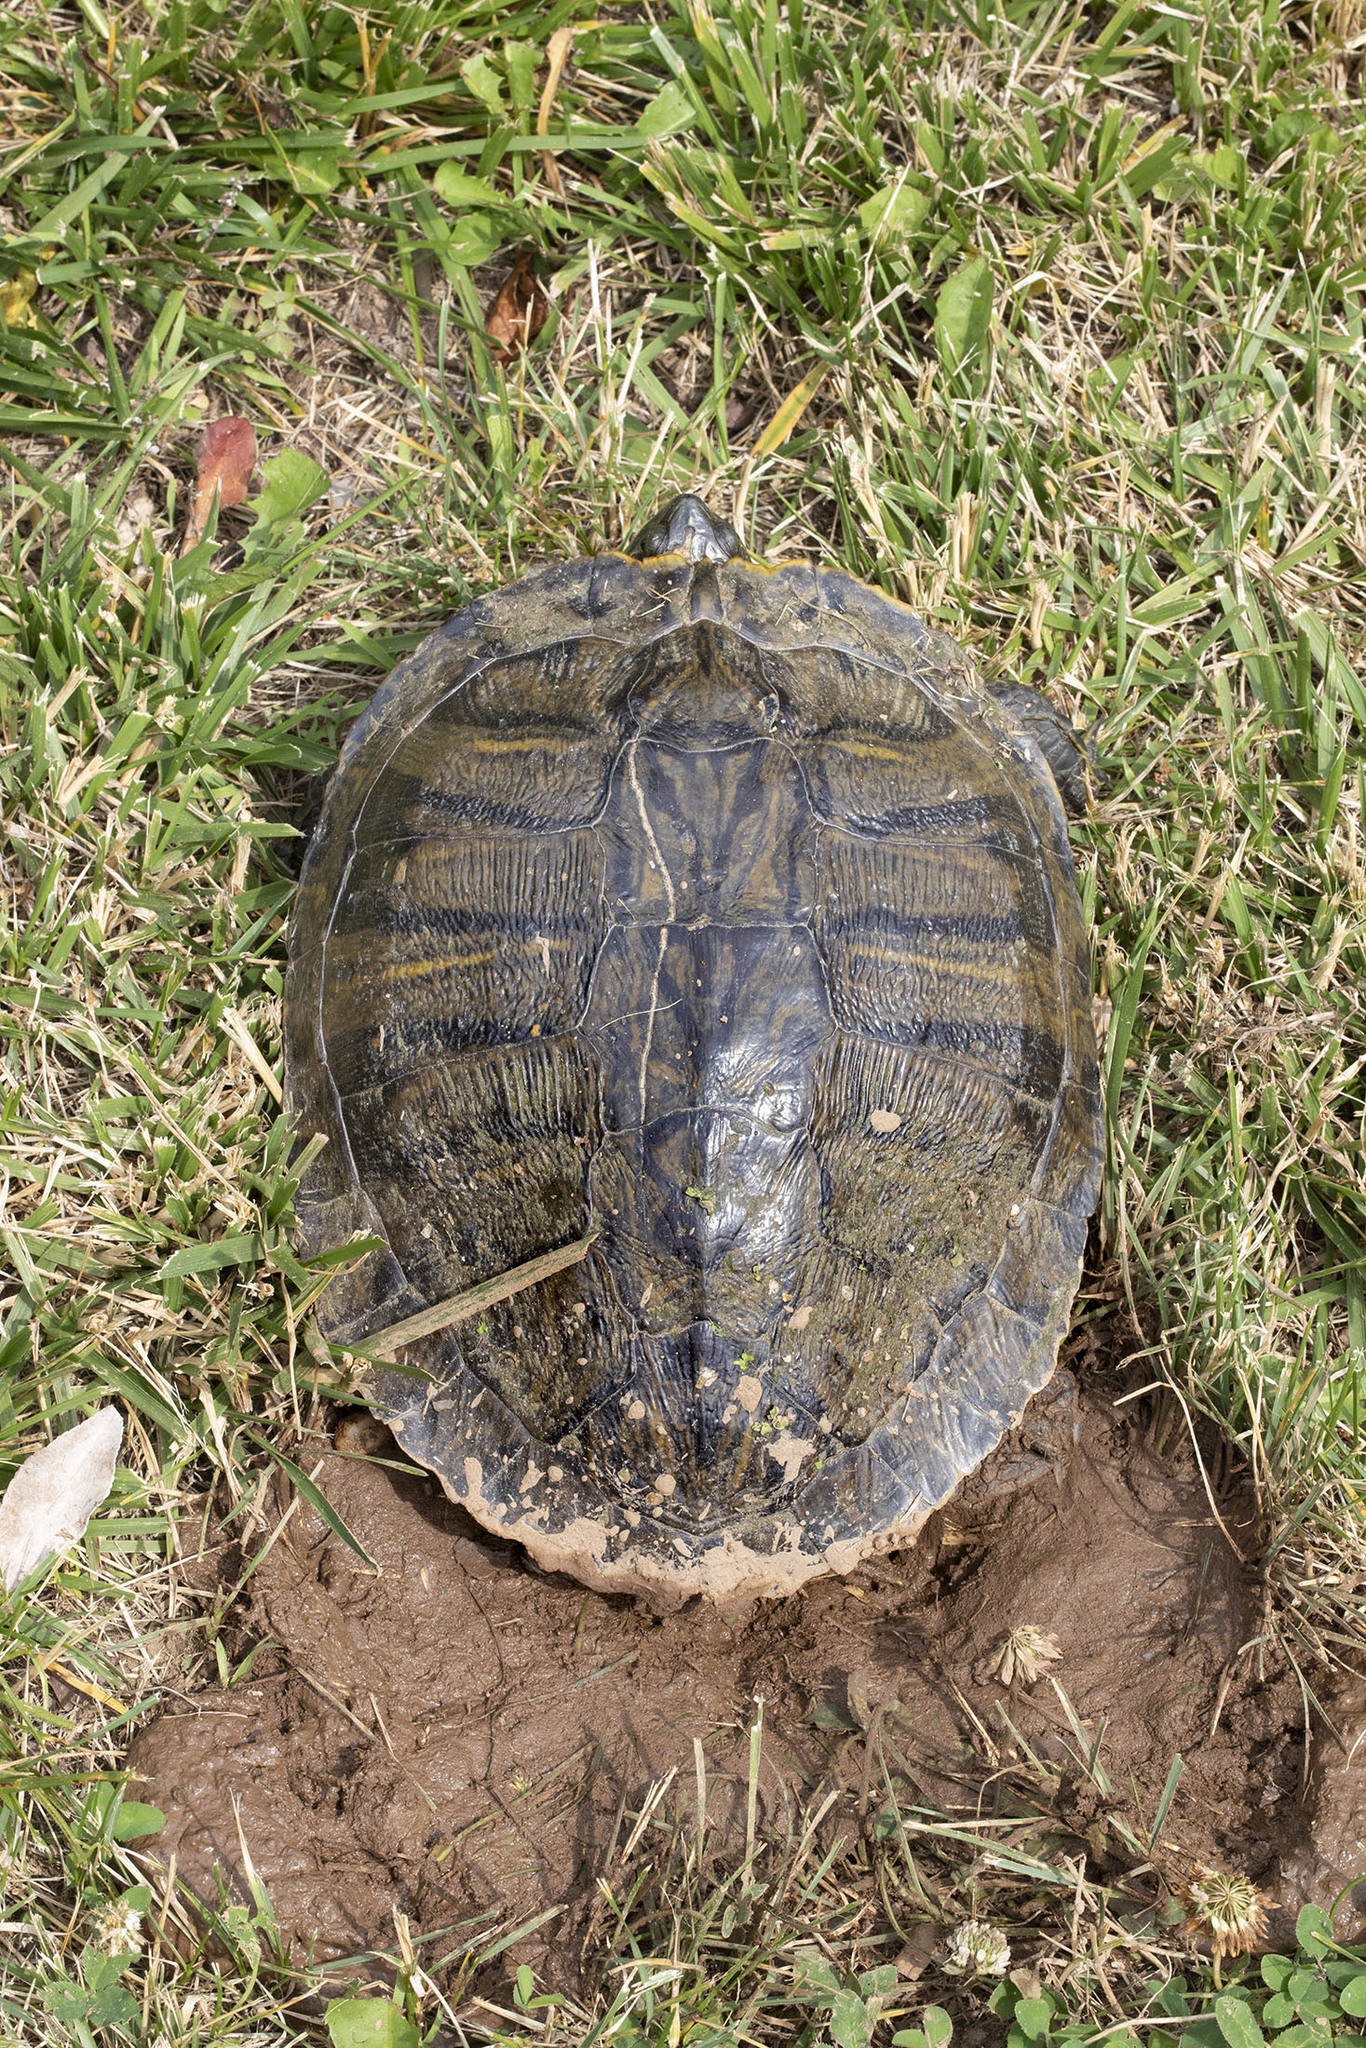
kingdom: Animalia
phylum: Chordata
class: Testudines
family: Emydidae
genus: Trachemys
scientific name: Trachemys scripta
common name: Slider
